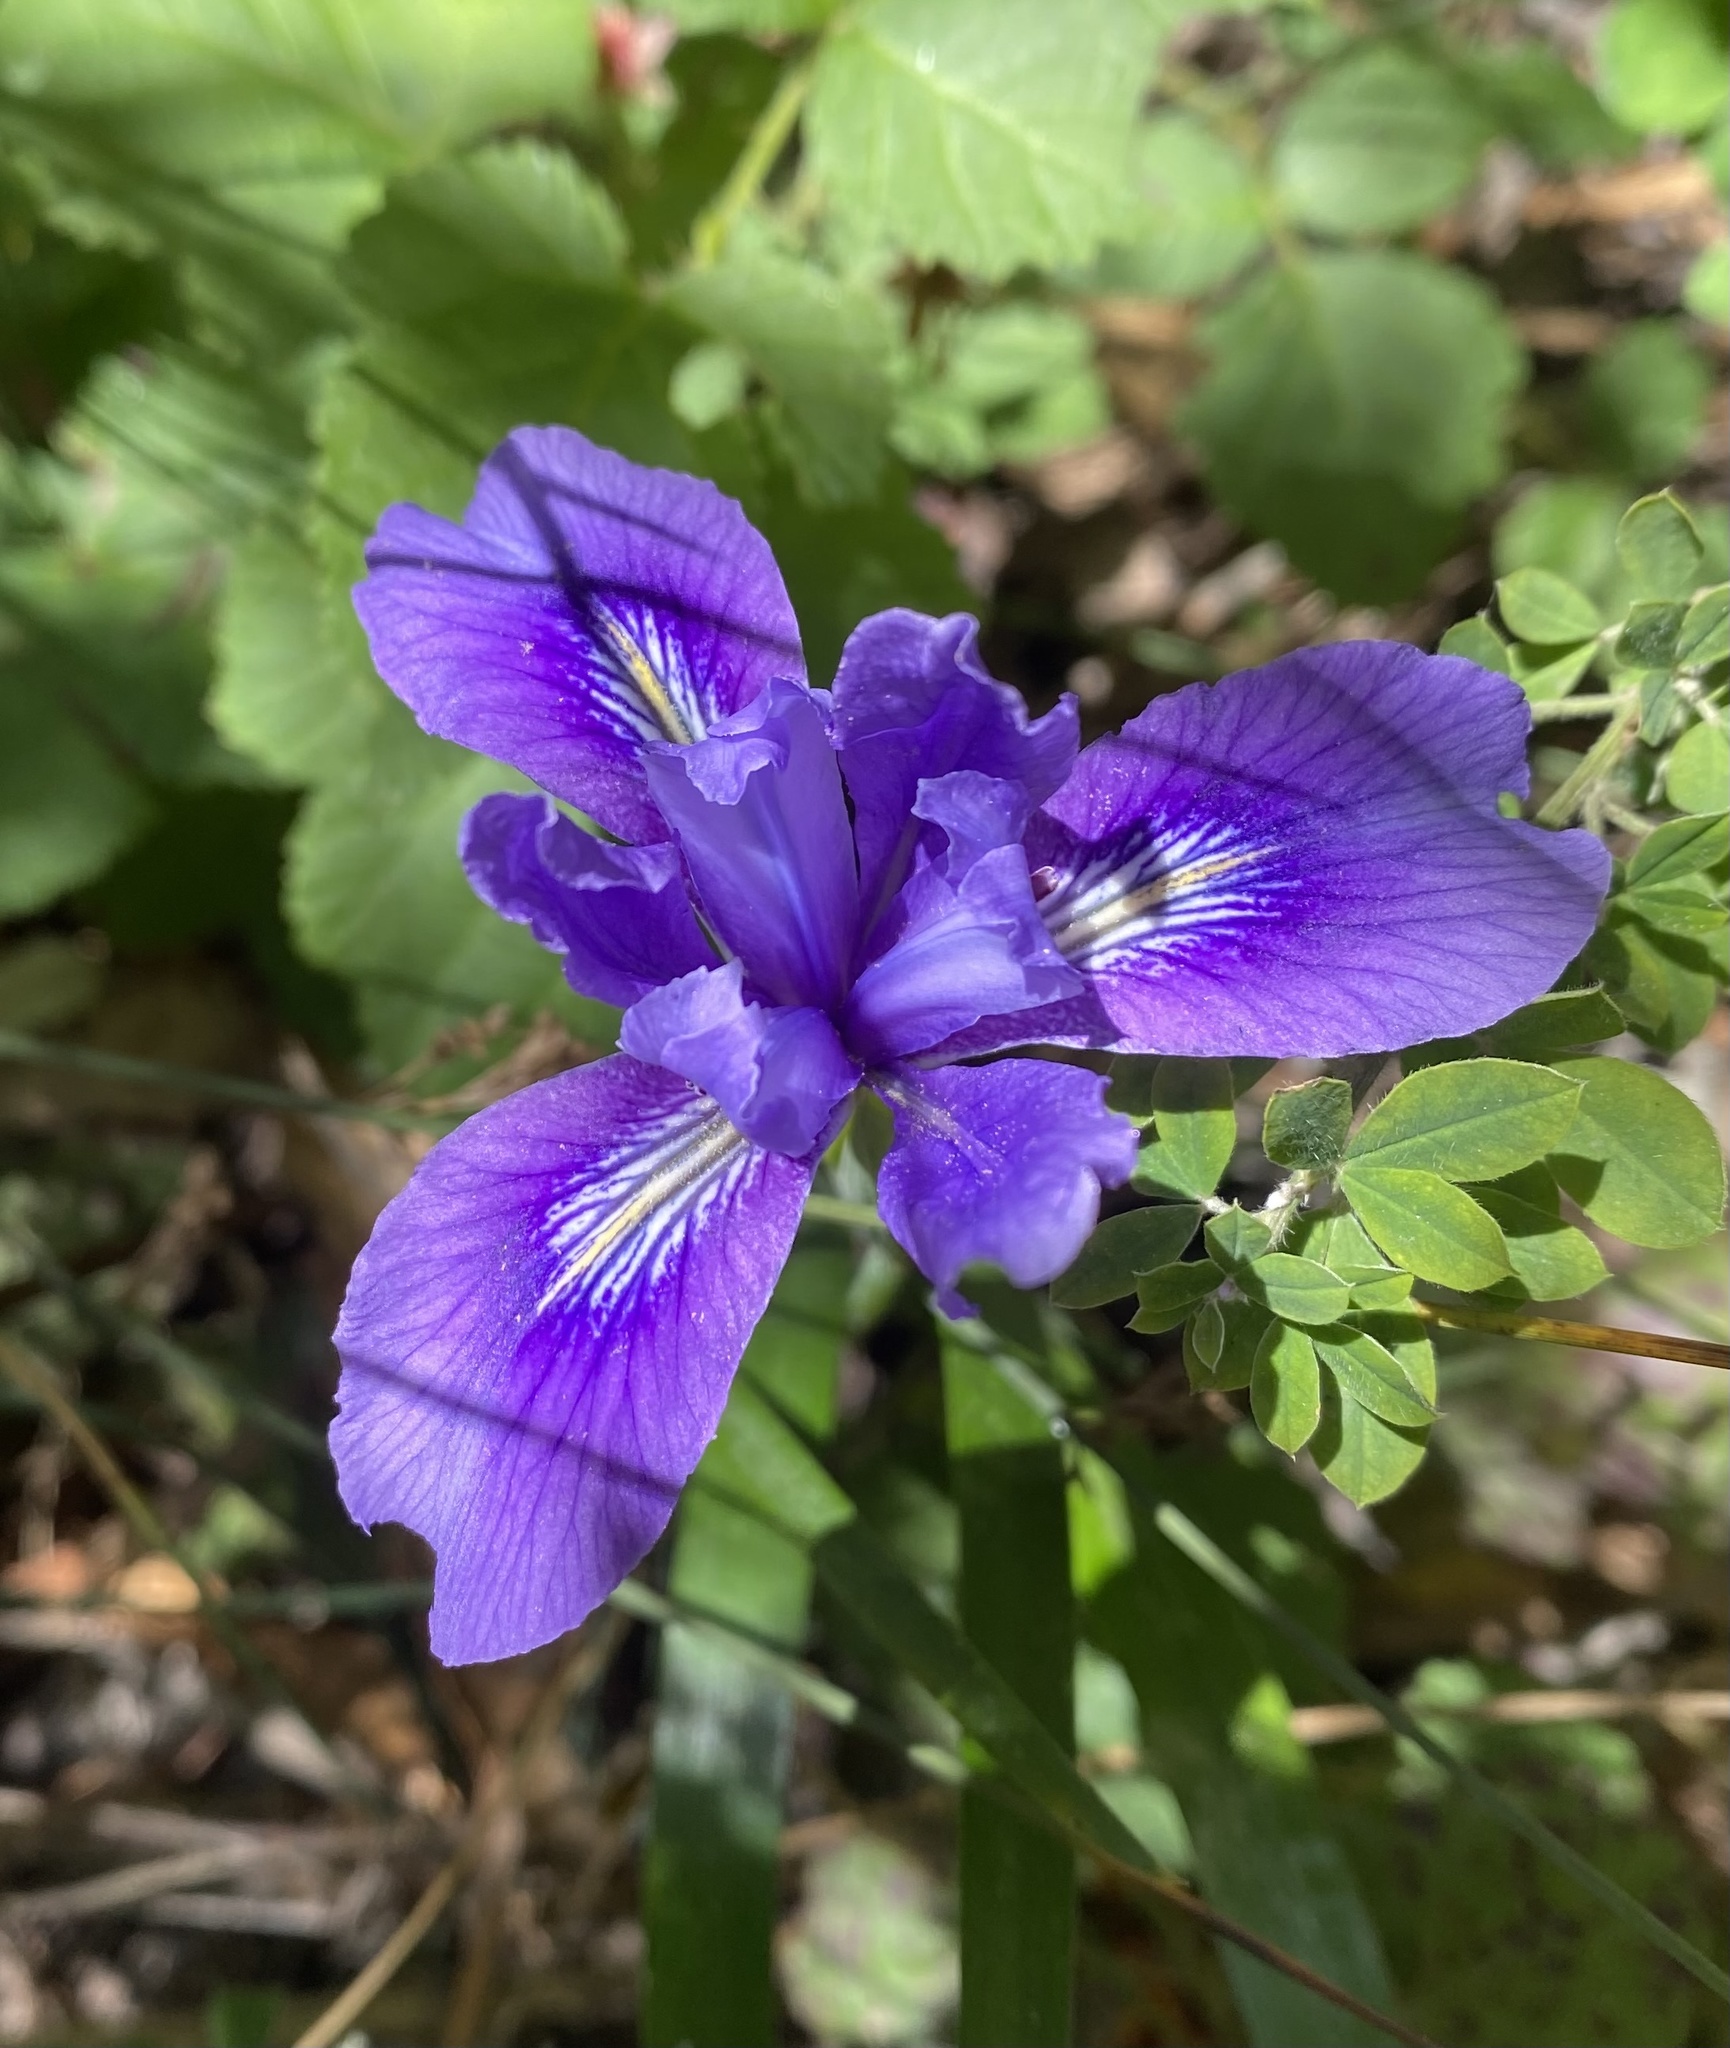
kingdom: Plantae
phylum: Tracheophyta
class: Liliopsida
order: Asparagales
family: Iridaceae
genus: Iris
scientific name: Iris douglasiana
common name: Marin iris
